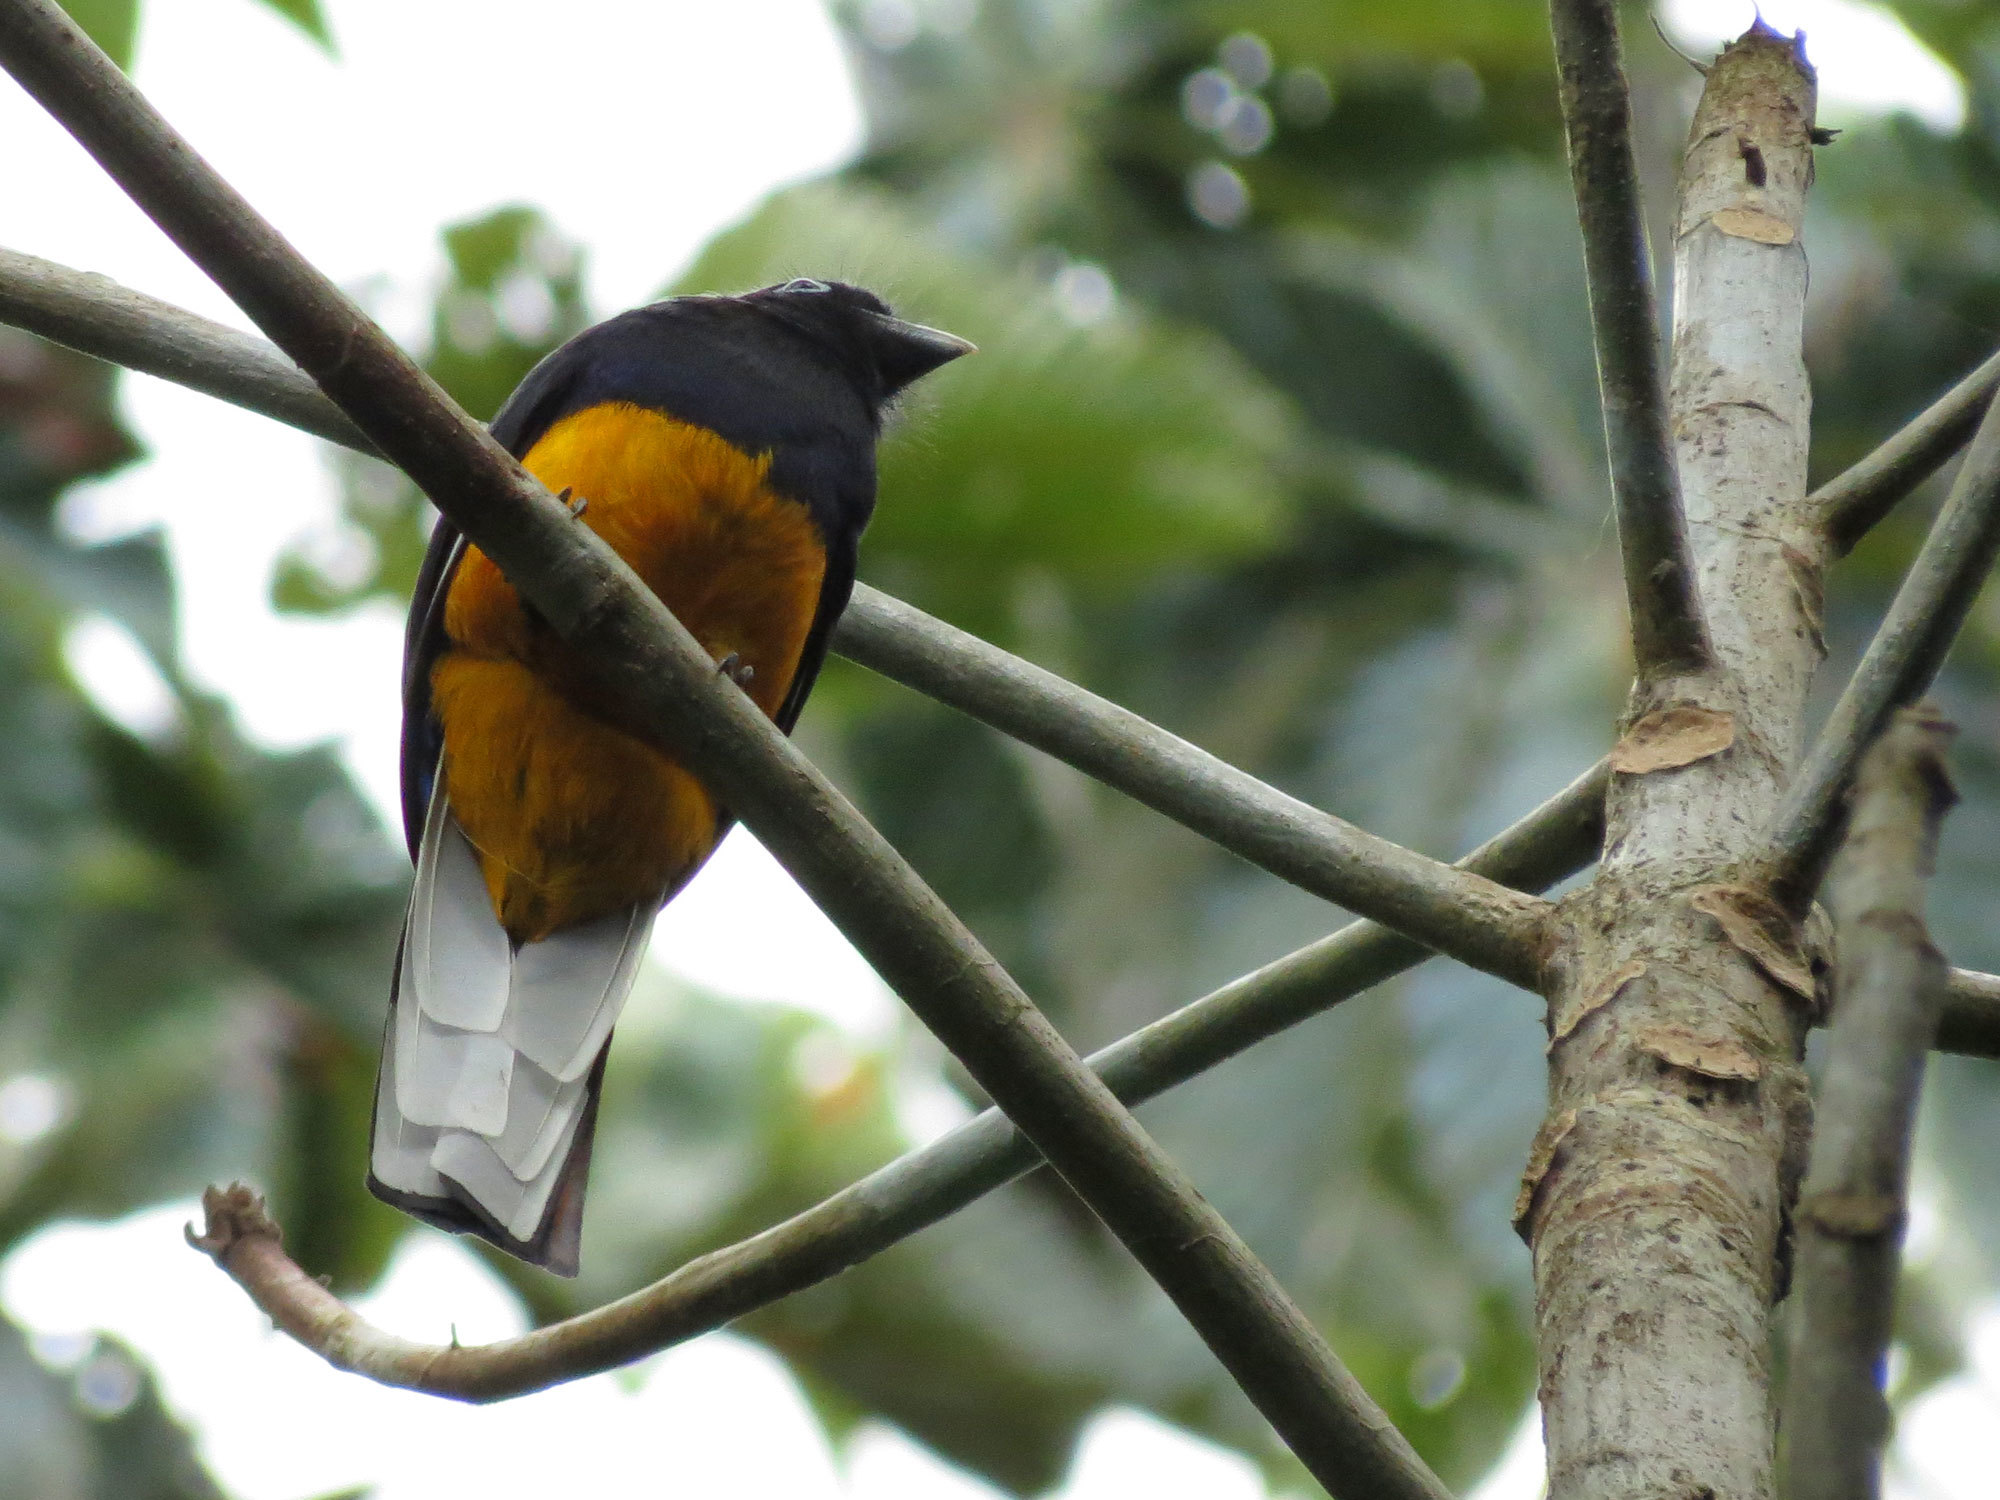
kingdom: Animalia
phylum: Chordata
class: Aves
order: Trogoniformes
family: Trogonidae
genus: Trogon
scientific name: Trogon chionurus
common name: White-tailed trogon
